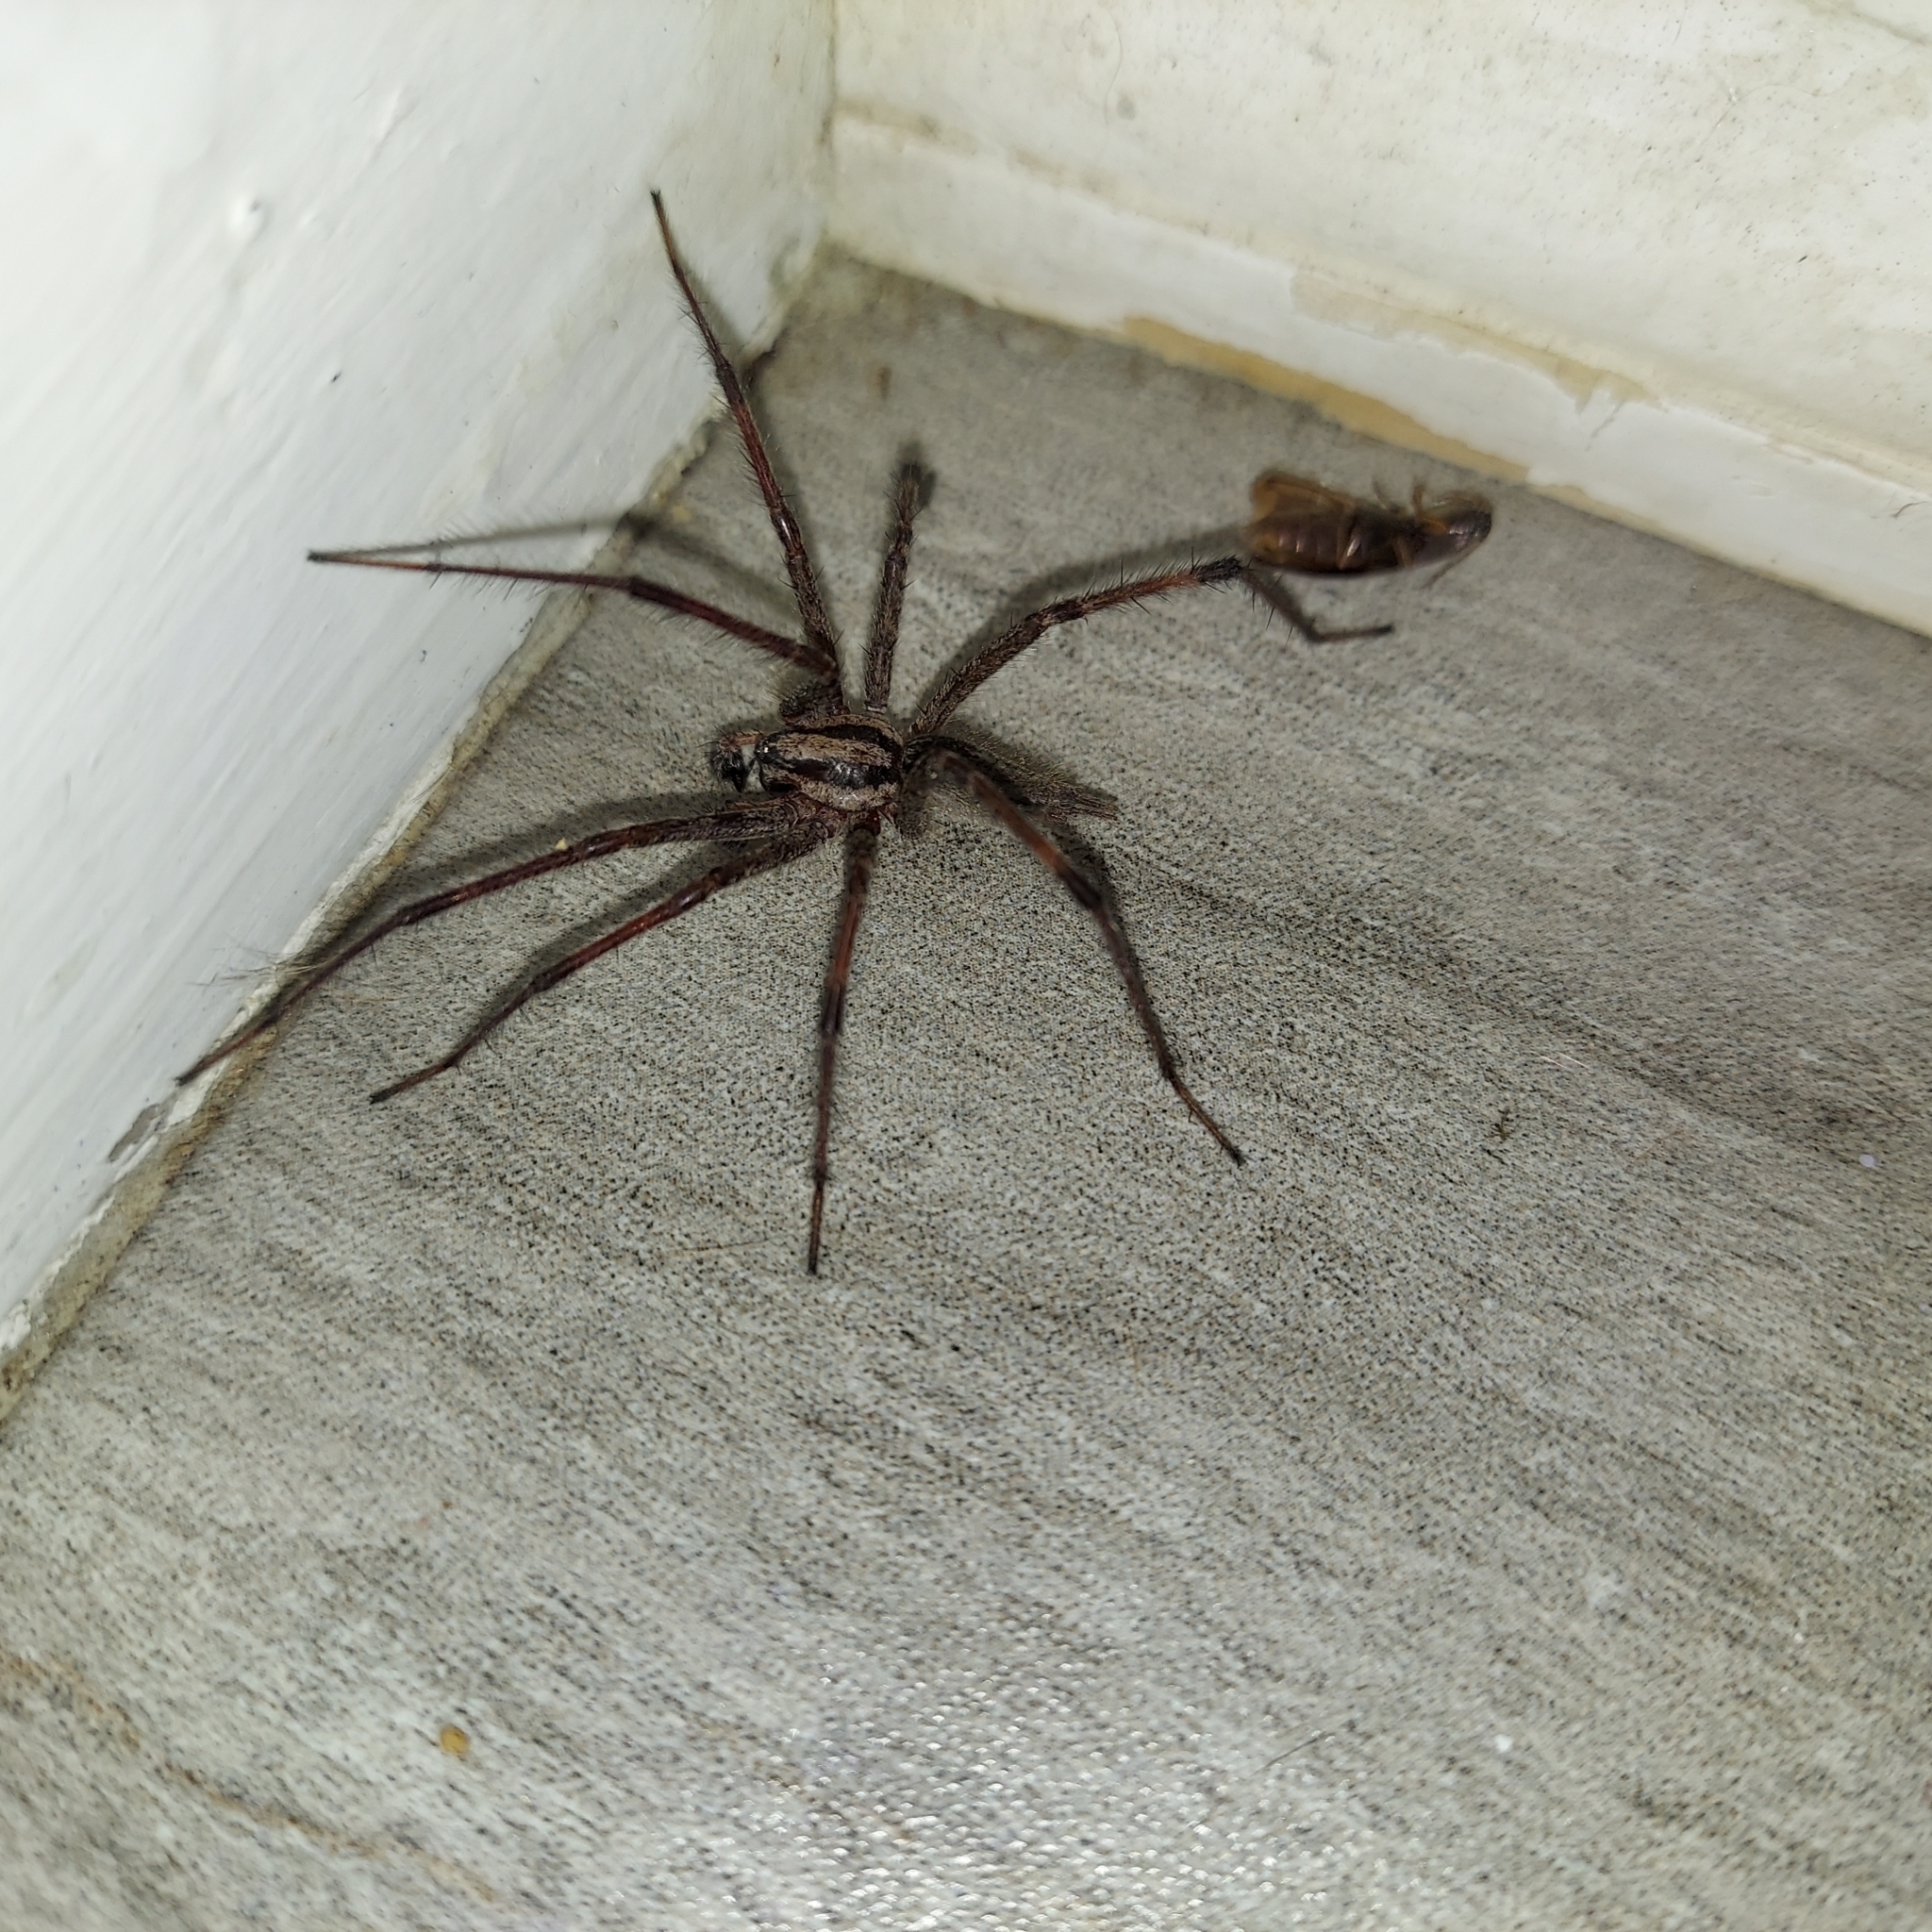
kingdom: Animalia
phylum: Arthropoda
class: Arachnida
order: Araneae
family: Agelenidae
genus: Agelenopsis
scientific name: Agelenopsis
